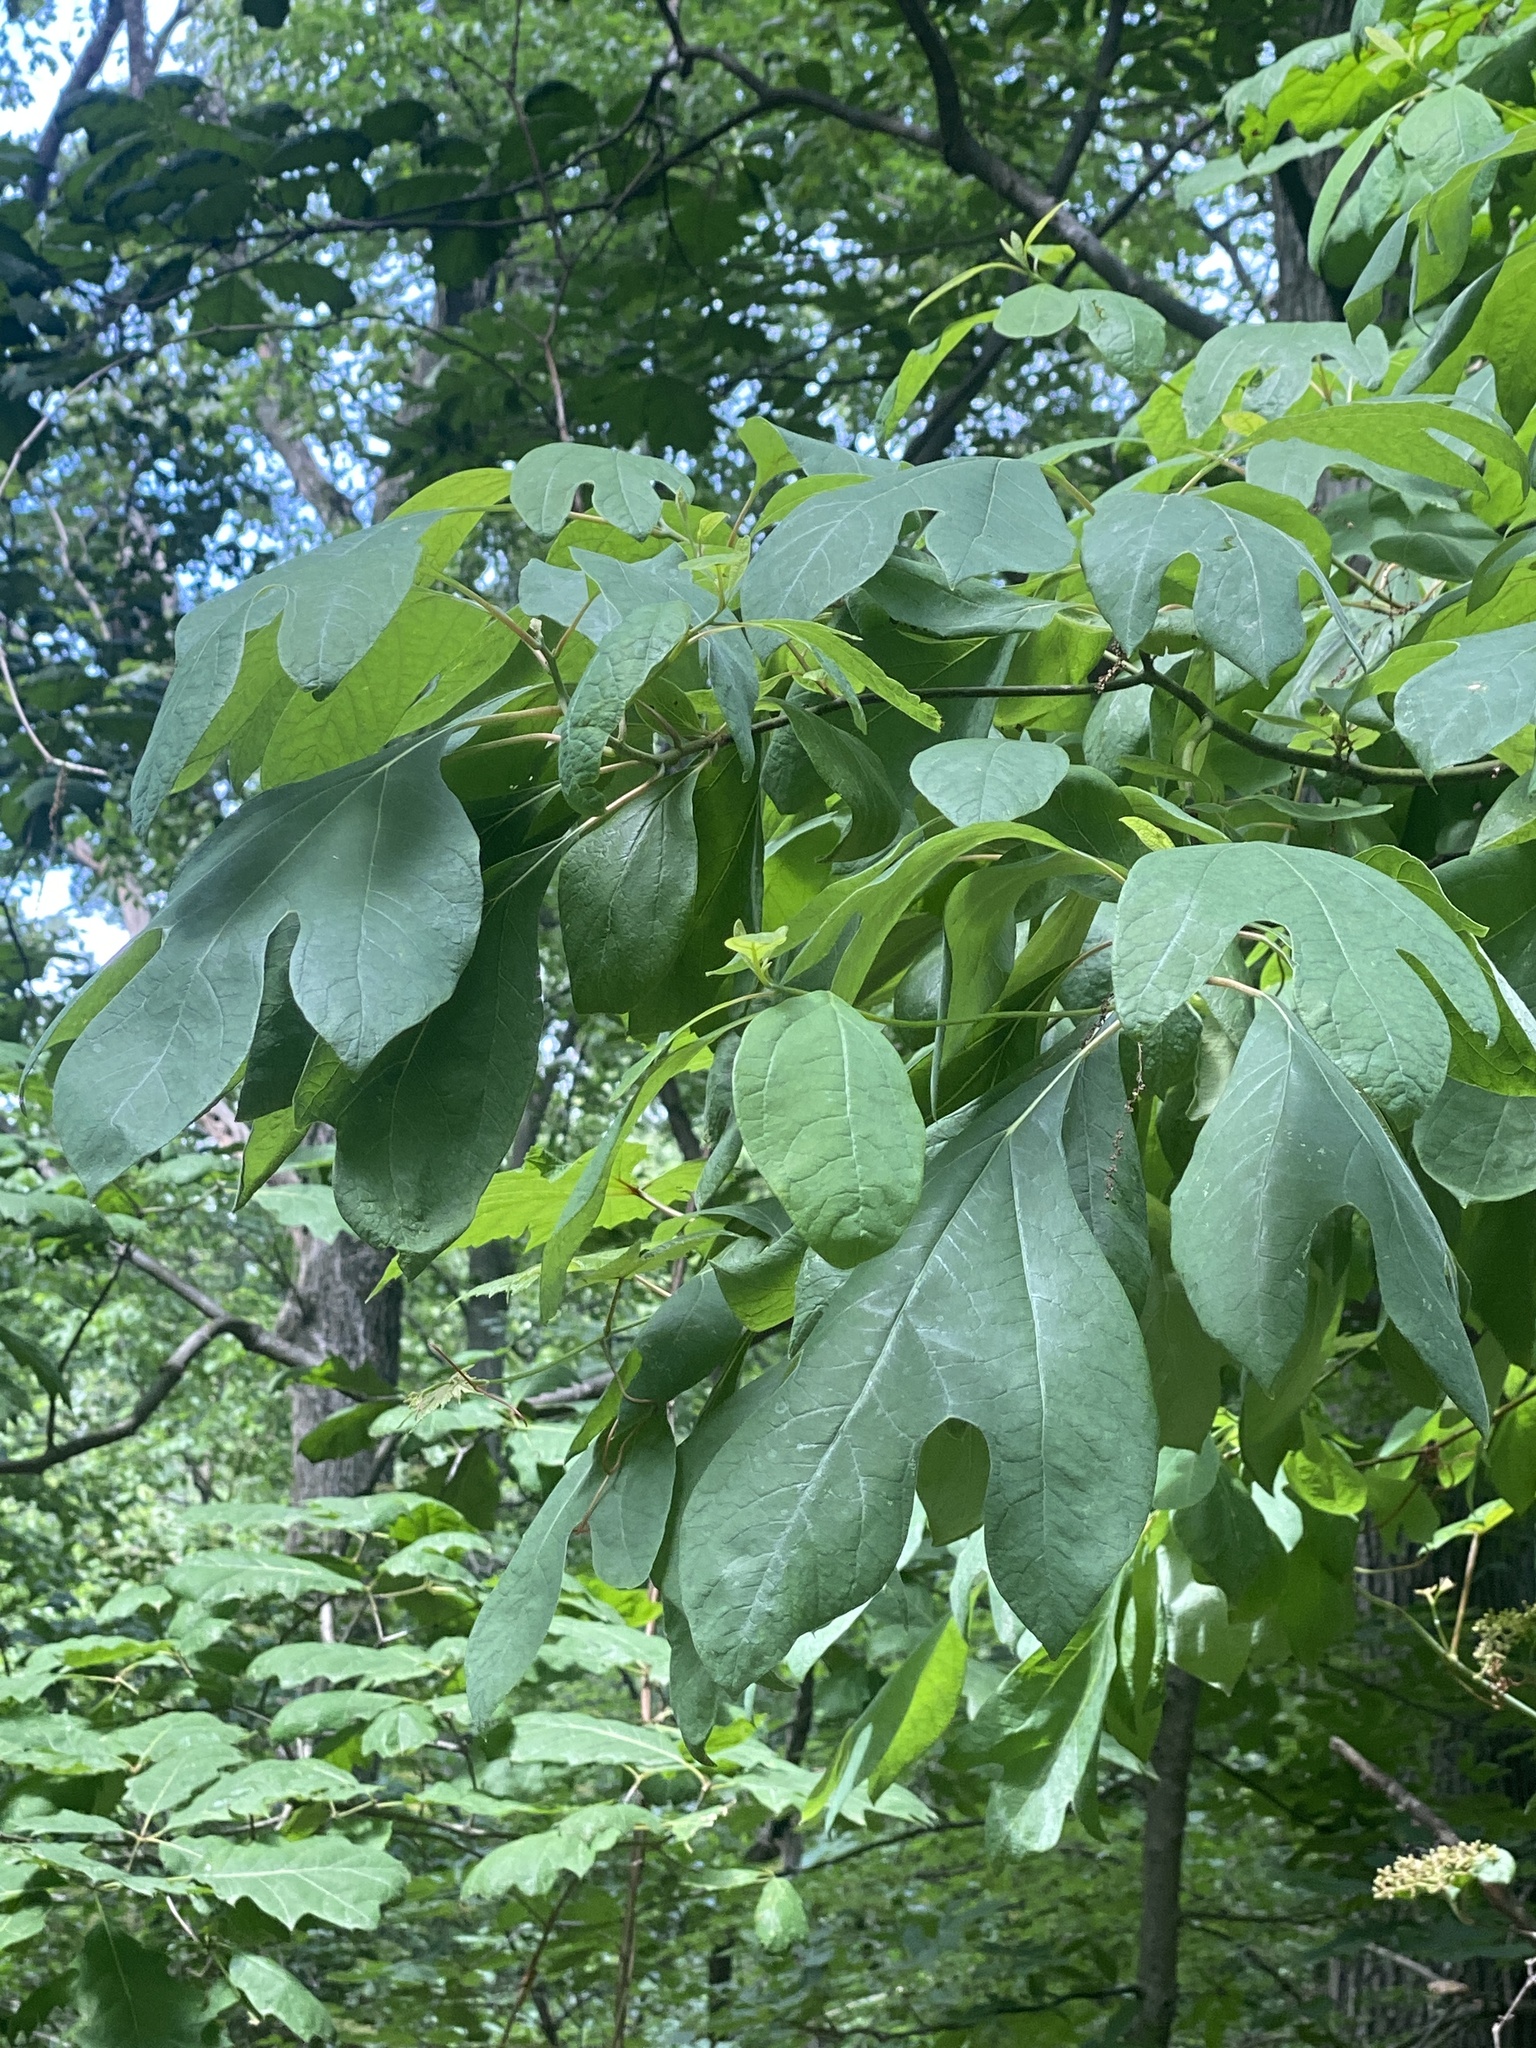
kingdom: Plantae
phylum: Tracheophyta
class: Magnoliopsida
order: Laurales
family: Lauraceae
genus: Sassafras
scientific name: Sassafras albidum
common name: Sassafras
